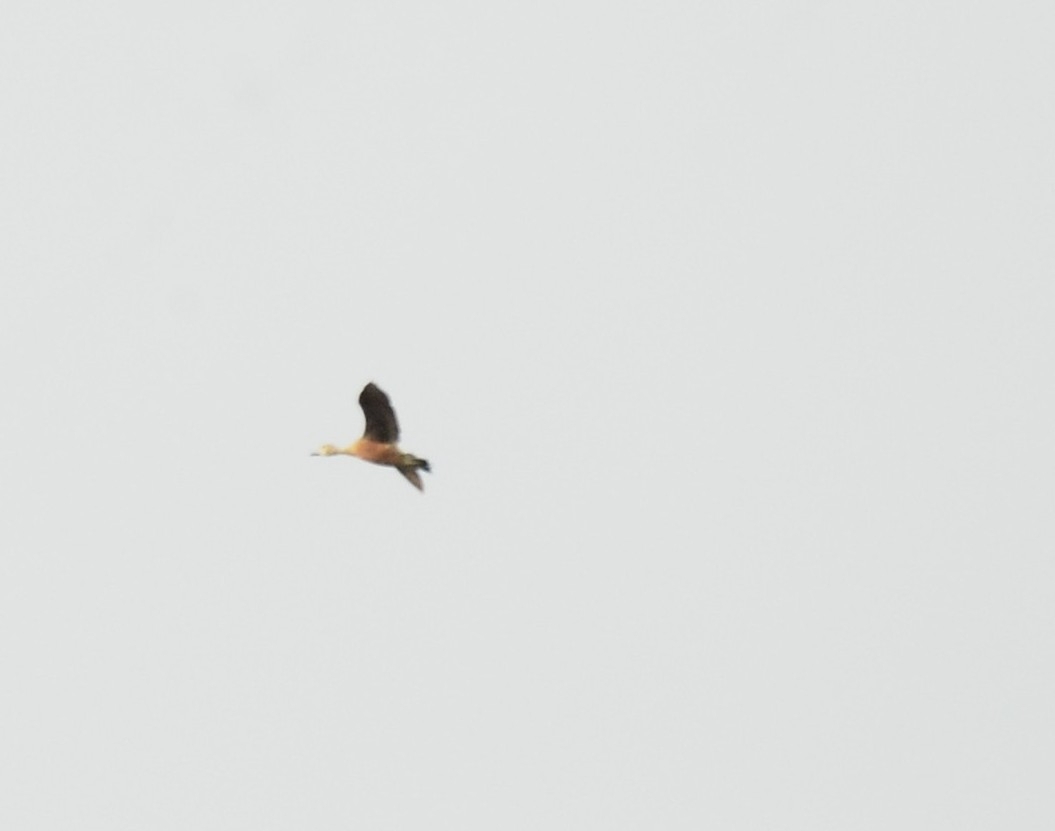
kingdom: Animalia
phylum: Chordata
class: Aves
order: Anseriformes
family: Anatidae
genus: Dendrocygna
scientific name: Dendrocygna javanica
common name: Lesser whistling-duck
